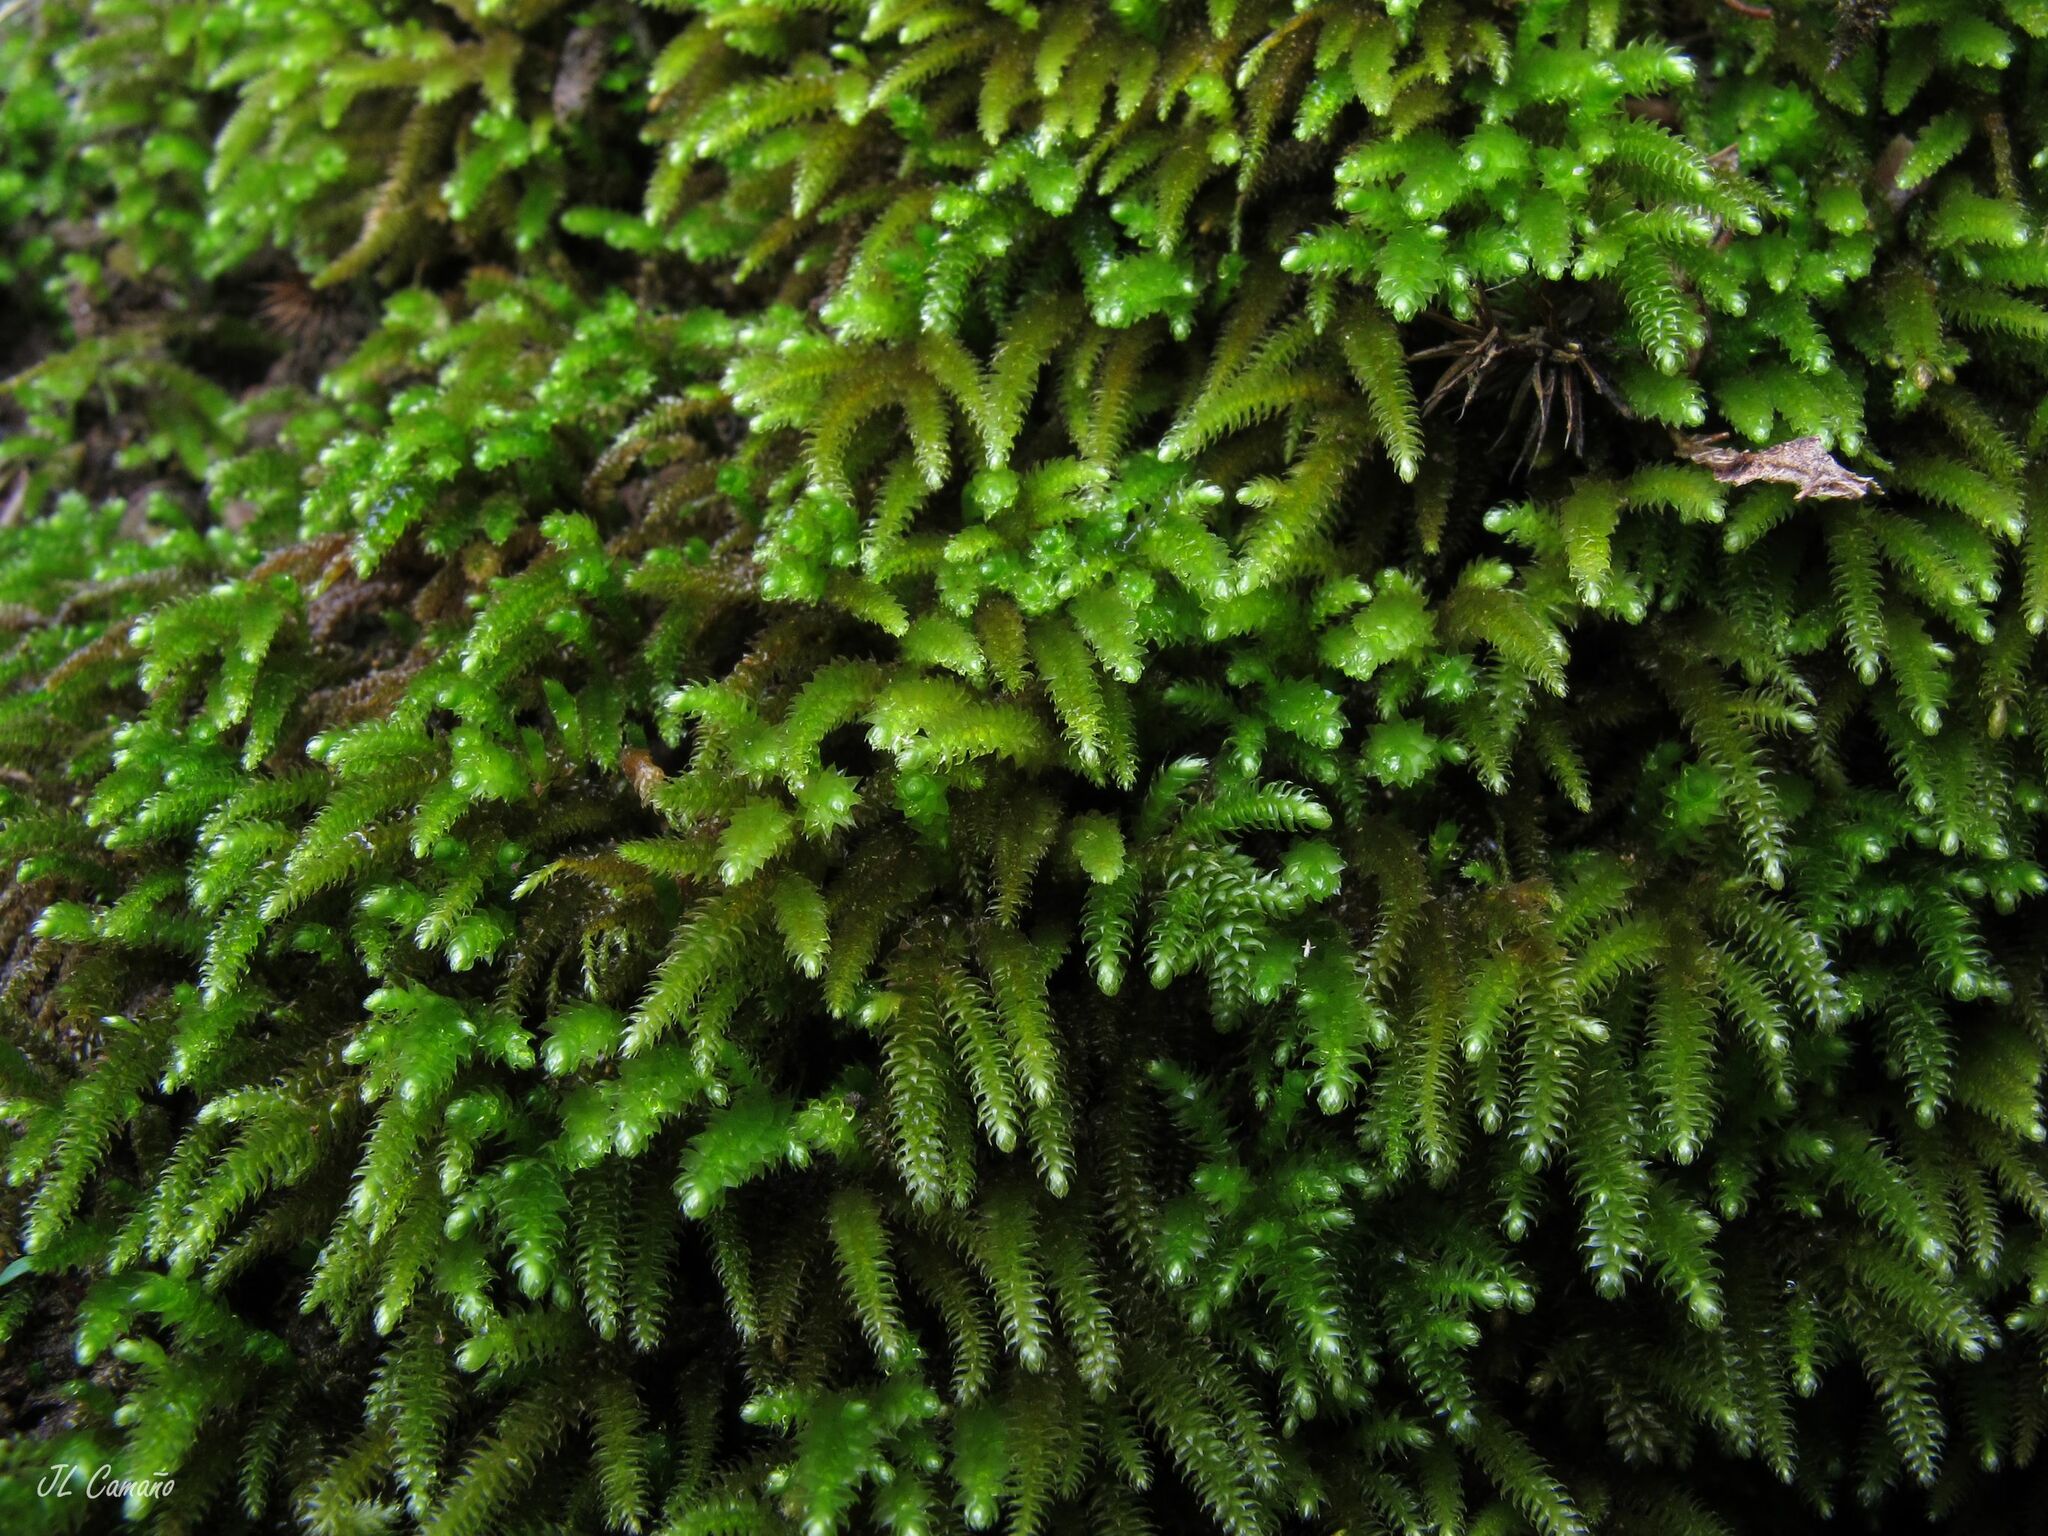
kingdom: Plantae
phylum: Bryophyta
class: Bryopsida
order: Hypnales
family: Lembophyllaceae
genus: Nogopterium
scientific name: Nogopterium gracile
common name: Bird's-foot wing-moss
